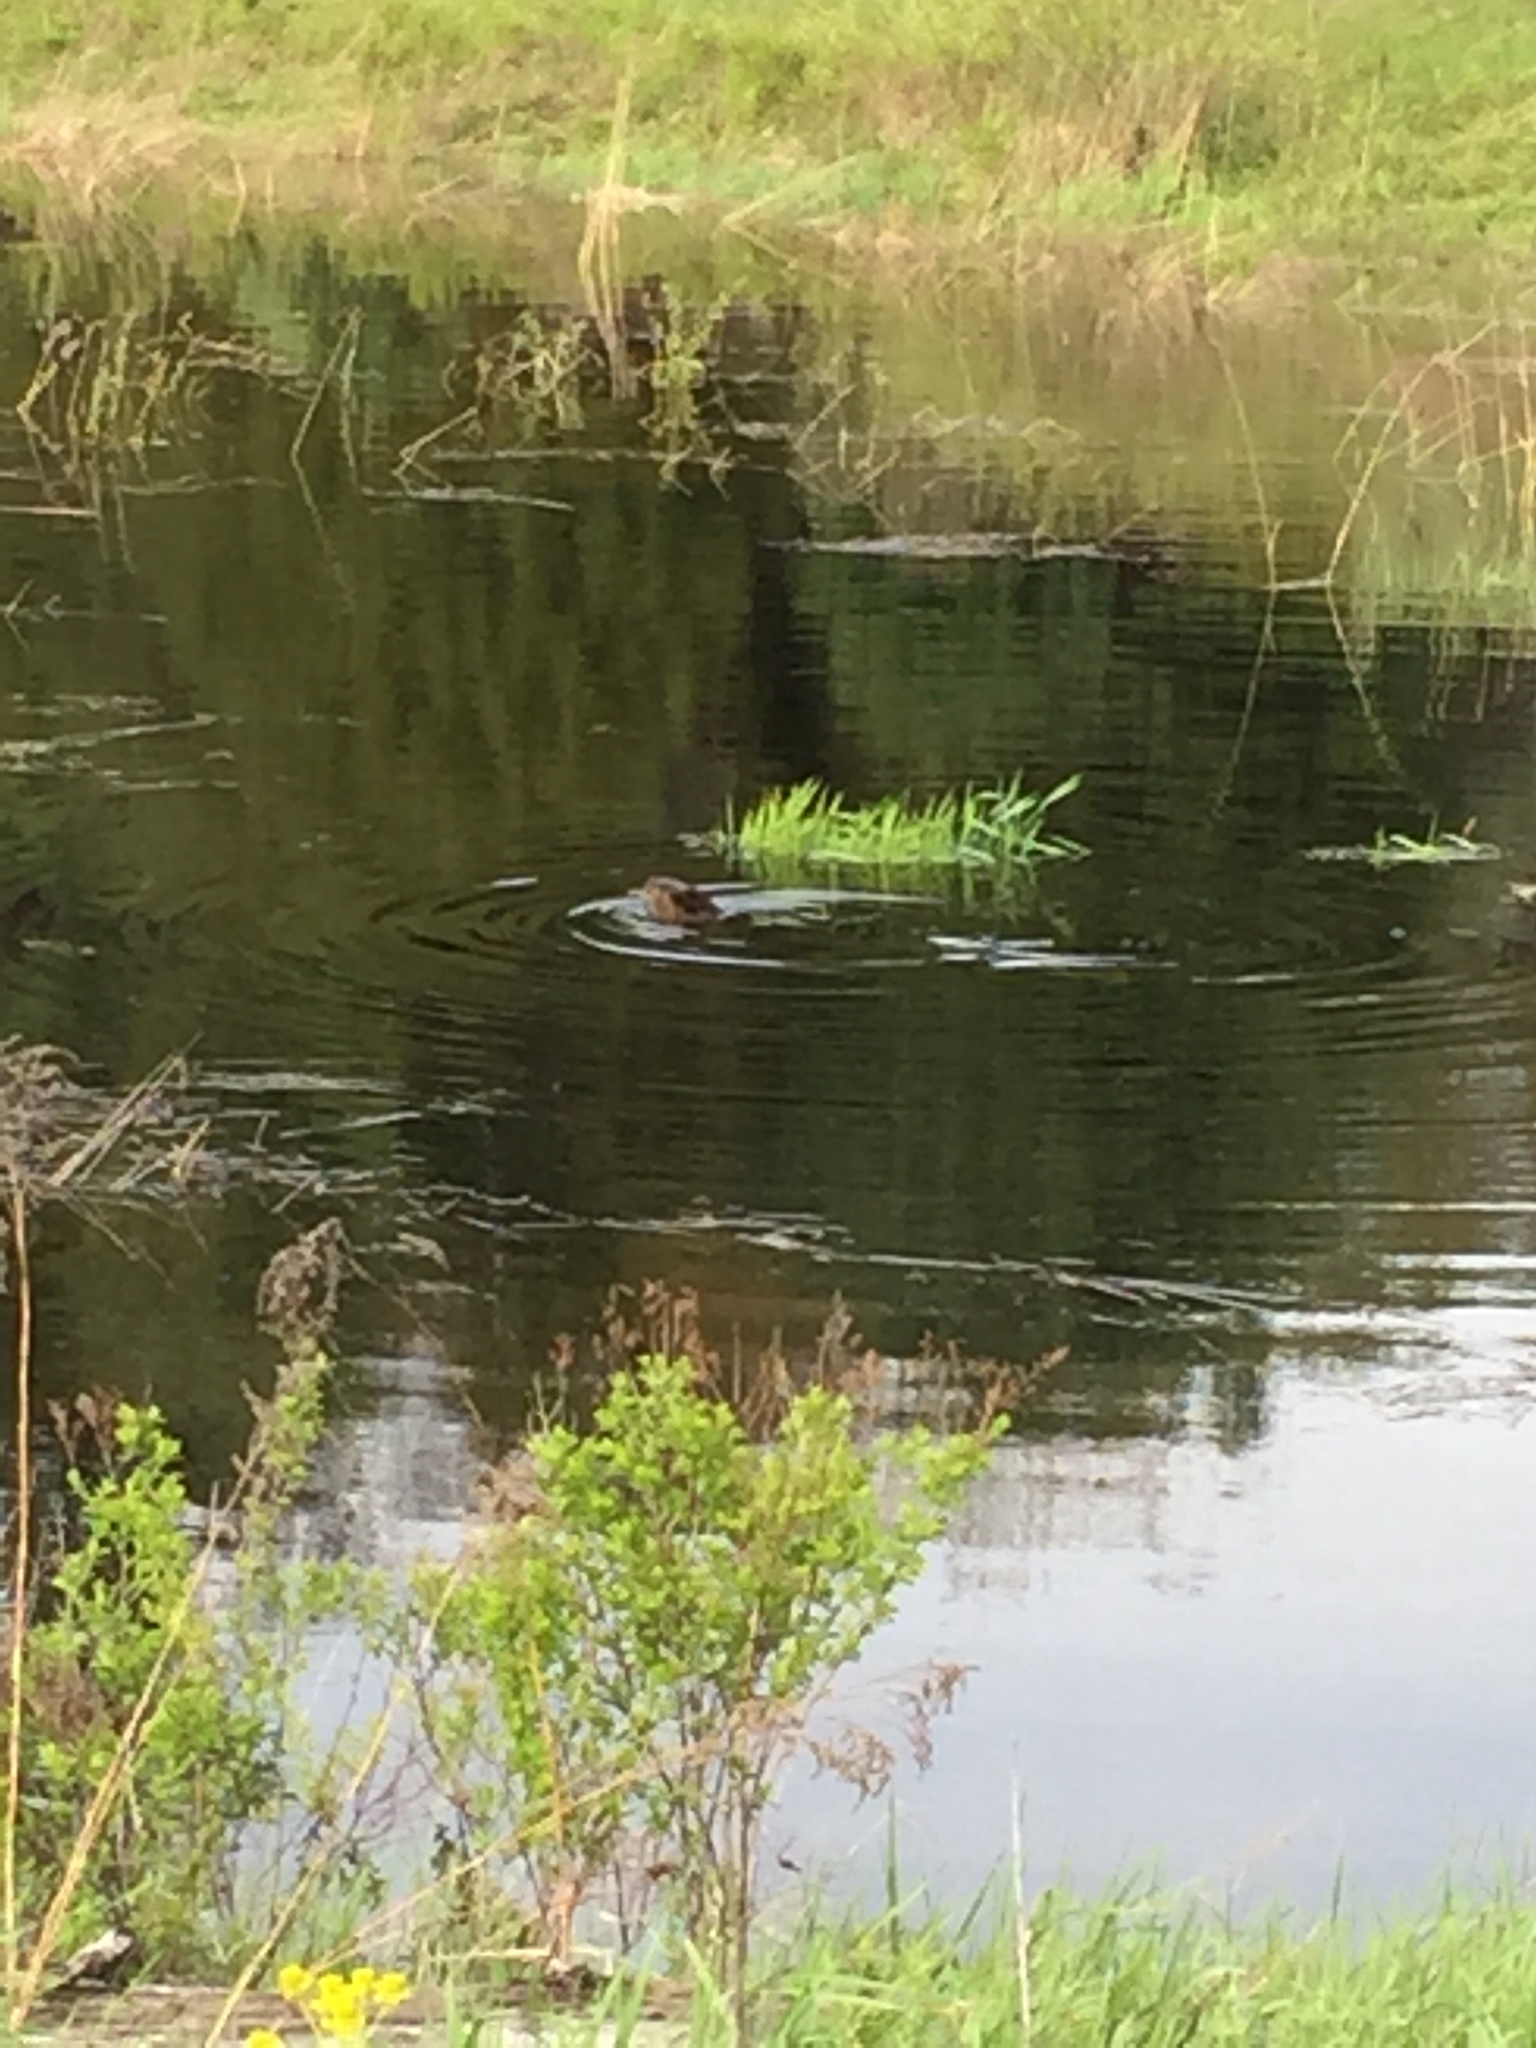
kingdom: Animalia
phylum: Chordata
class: Mammalia
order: Rodentia
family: Castoridae
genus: Castor
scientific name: Castor canadensis
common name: American beaver
